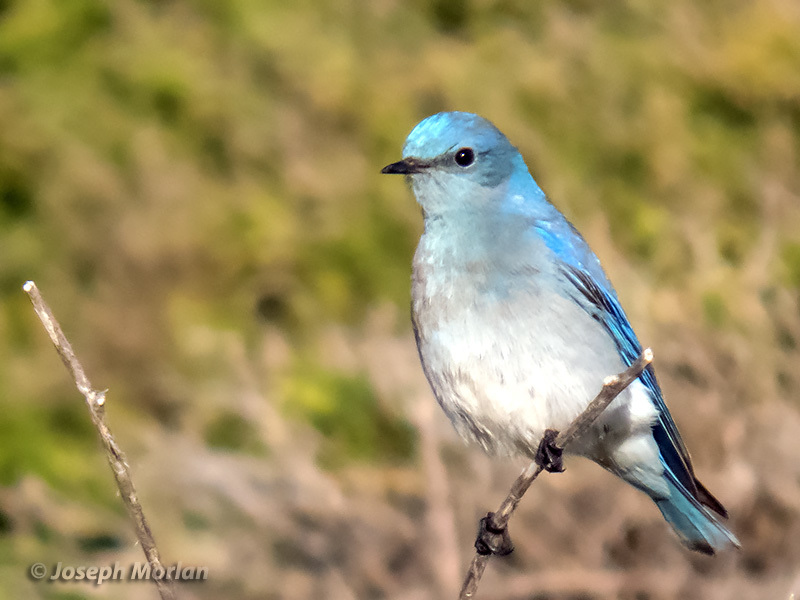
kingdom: Animalia
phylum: Chordata
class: Aves
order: Passeriformes
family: Turdidae
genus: Sialia
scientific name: Sialia currucoides
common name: Mountain bluebird
